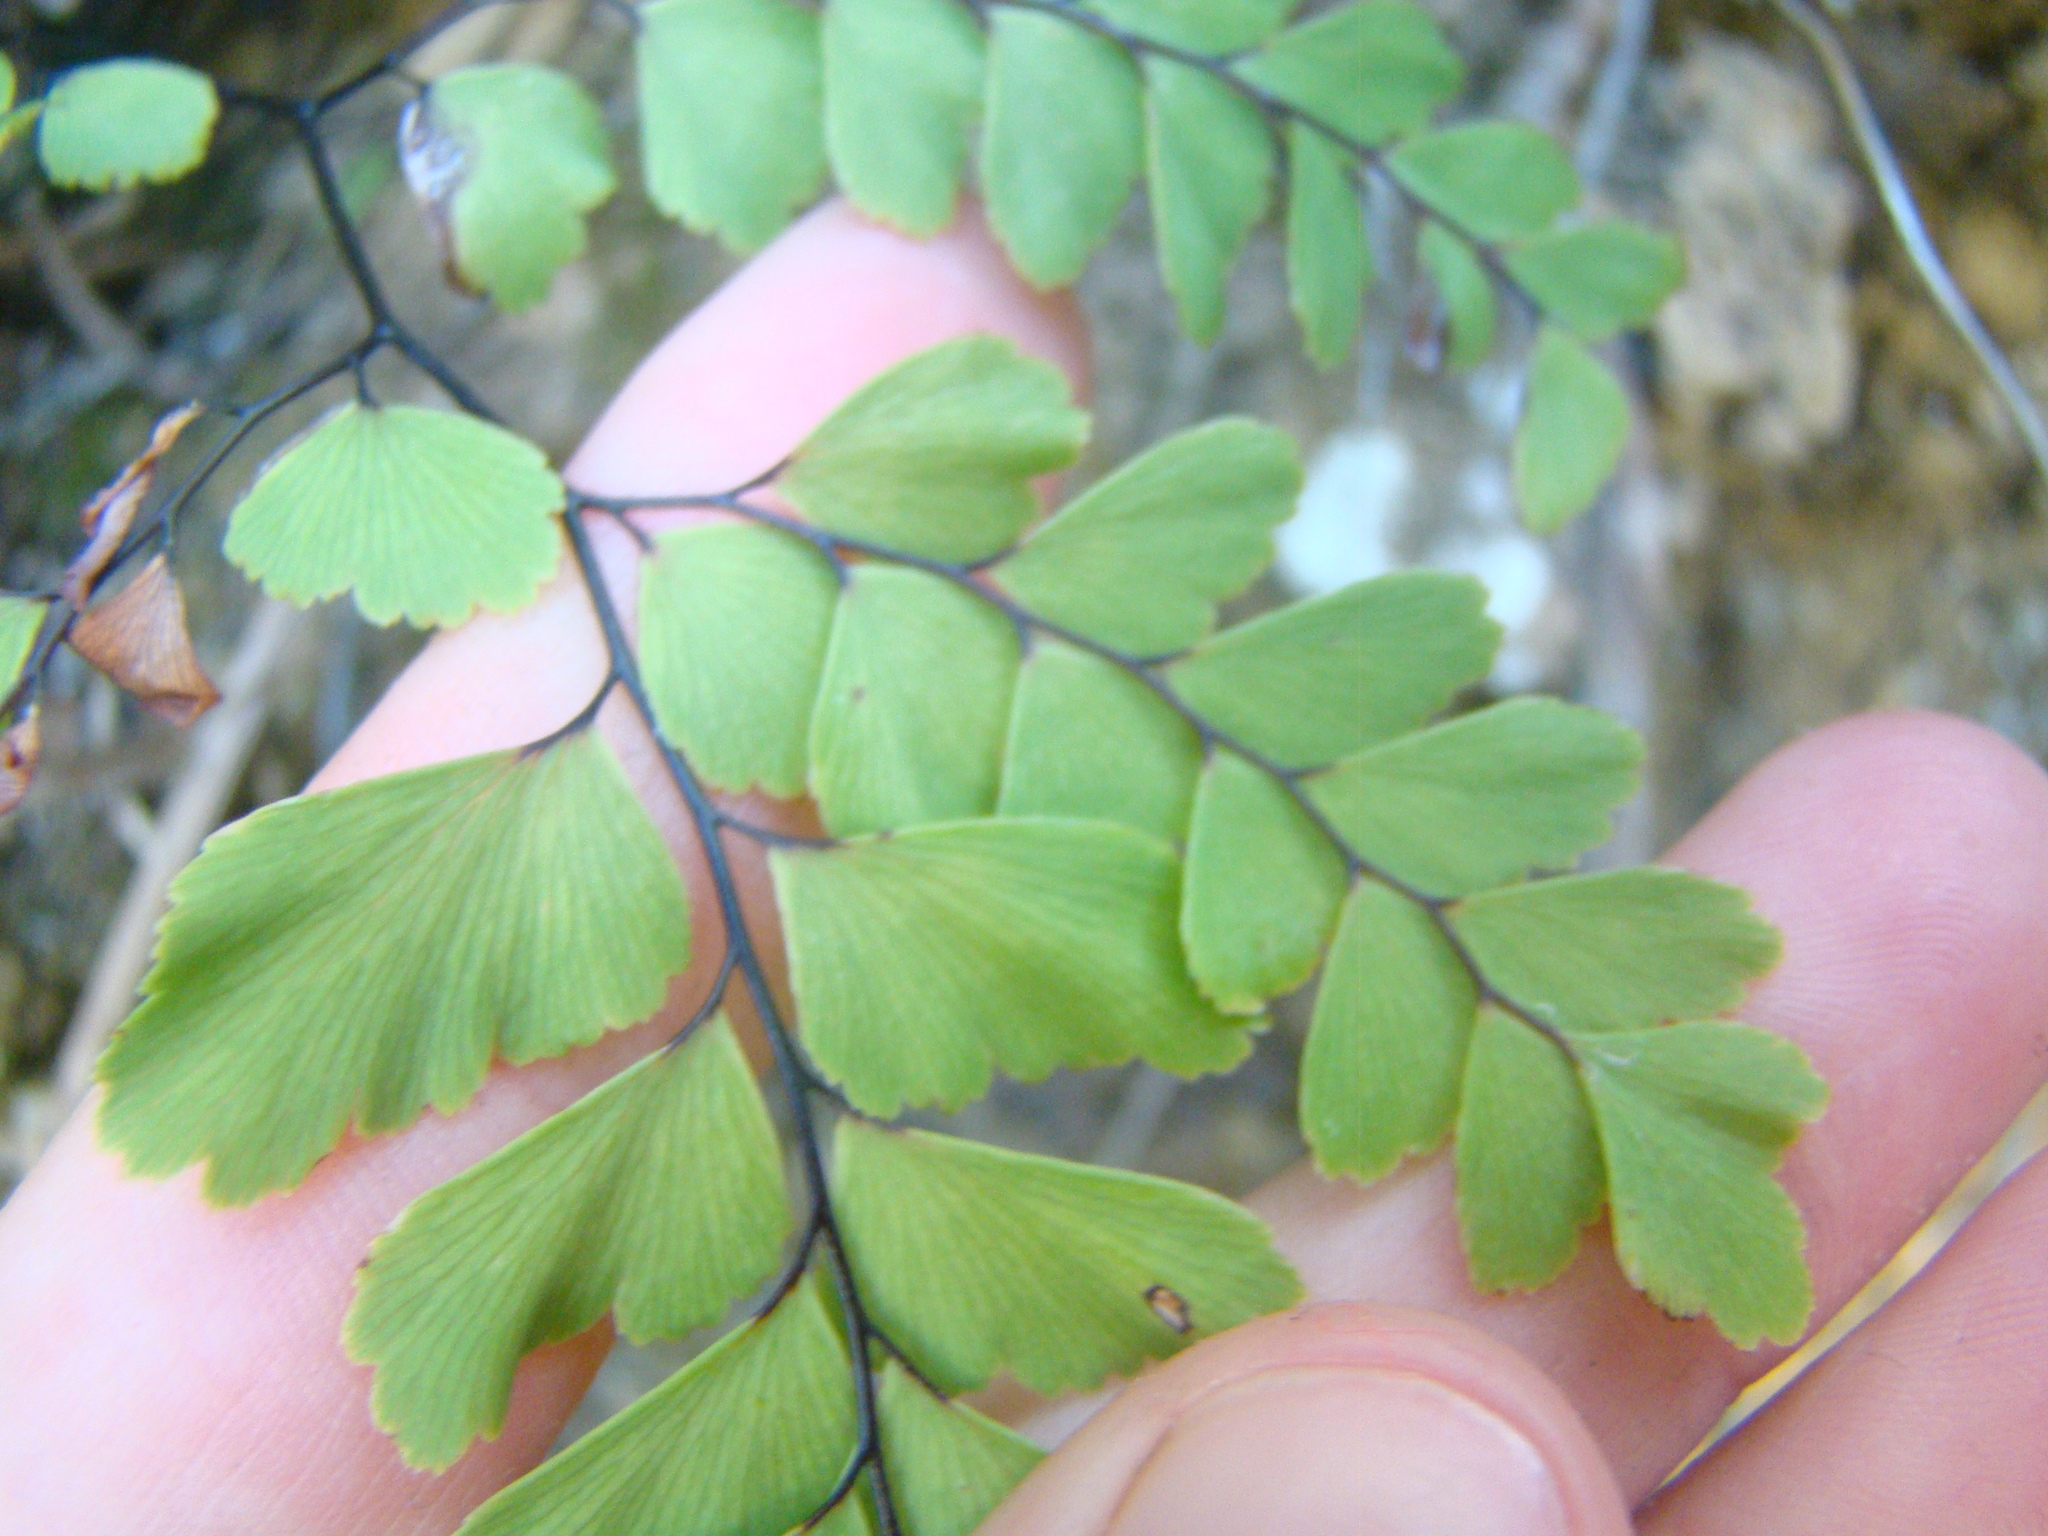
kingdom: Plantae
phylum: Tracheophyta
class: Polypodiopsida
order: Polypodiales
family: Pteridaceae
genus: Adiantum
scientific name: Adiantum cunninghamii
